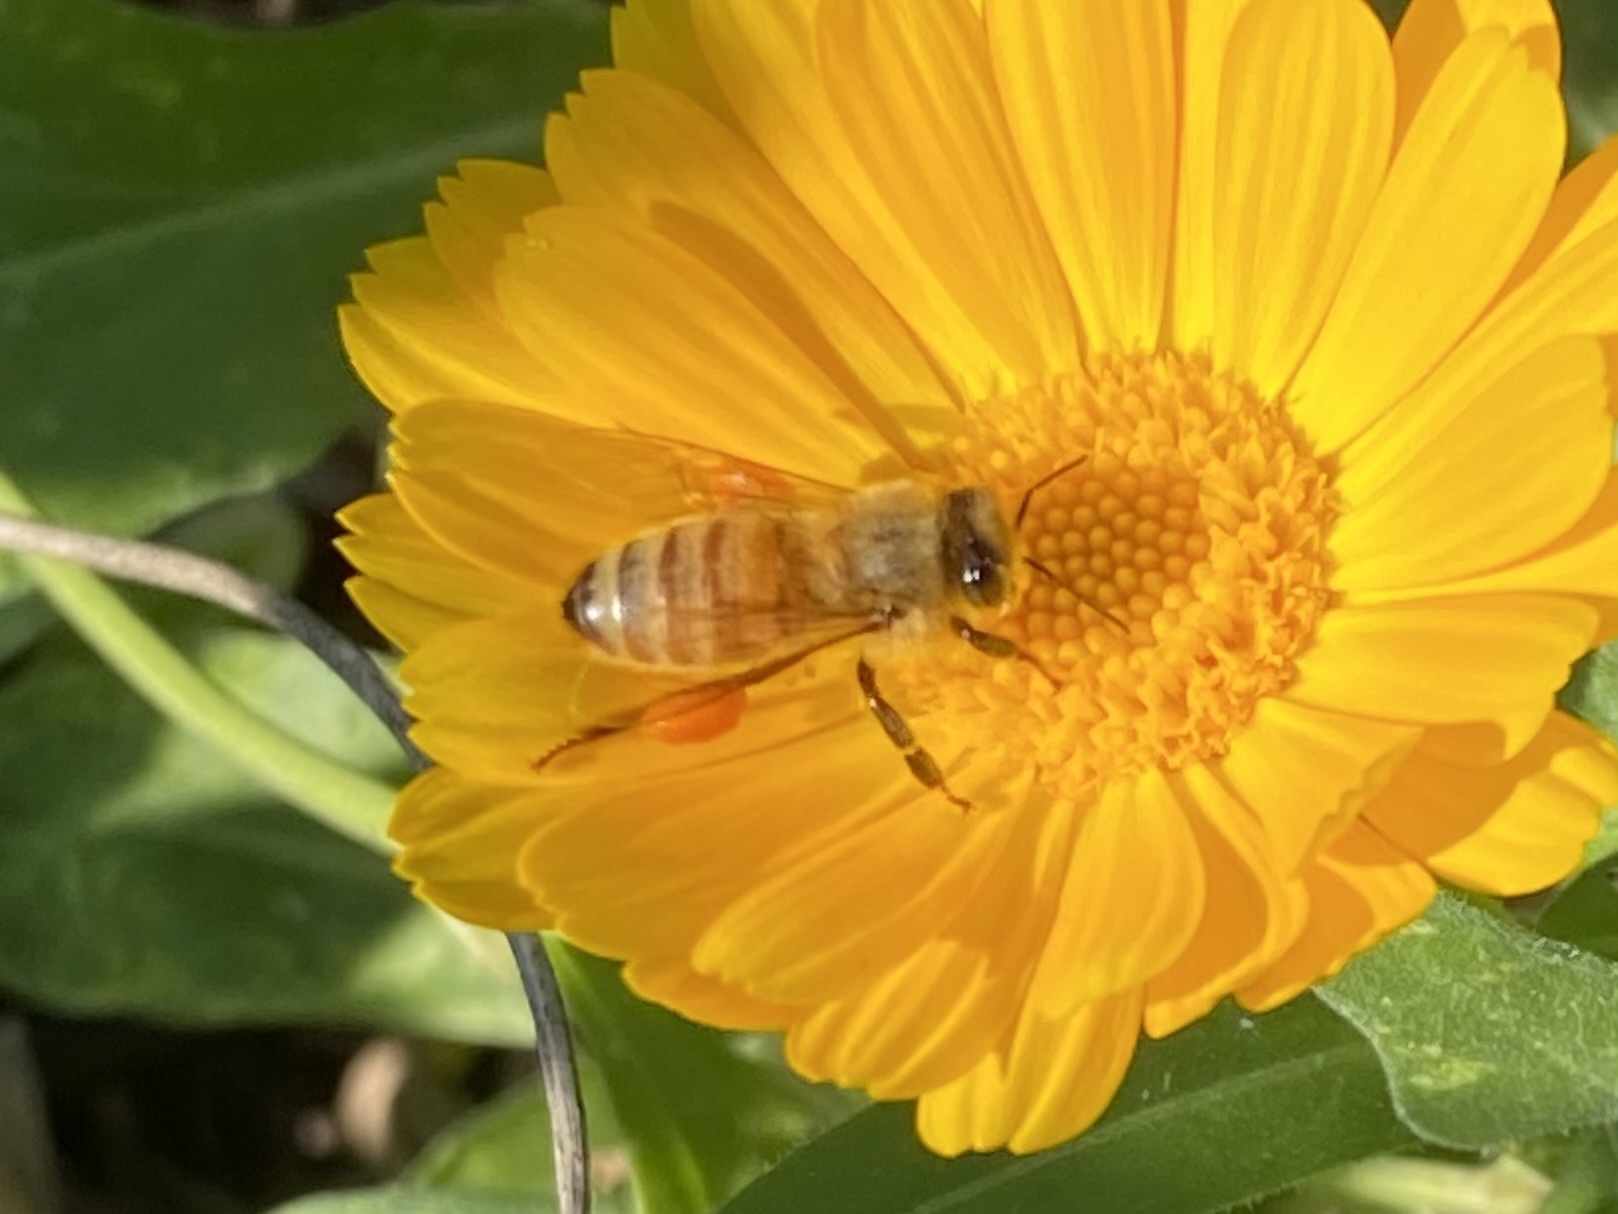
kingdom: Animalia
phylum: Arthropoda
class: Insecta
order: Hymenoptera
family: Apidae
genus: Apis
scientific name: Apis mellifera
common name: Honey bee
